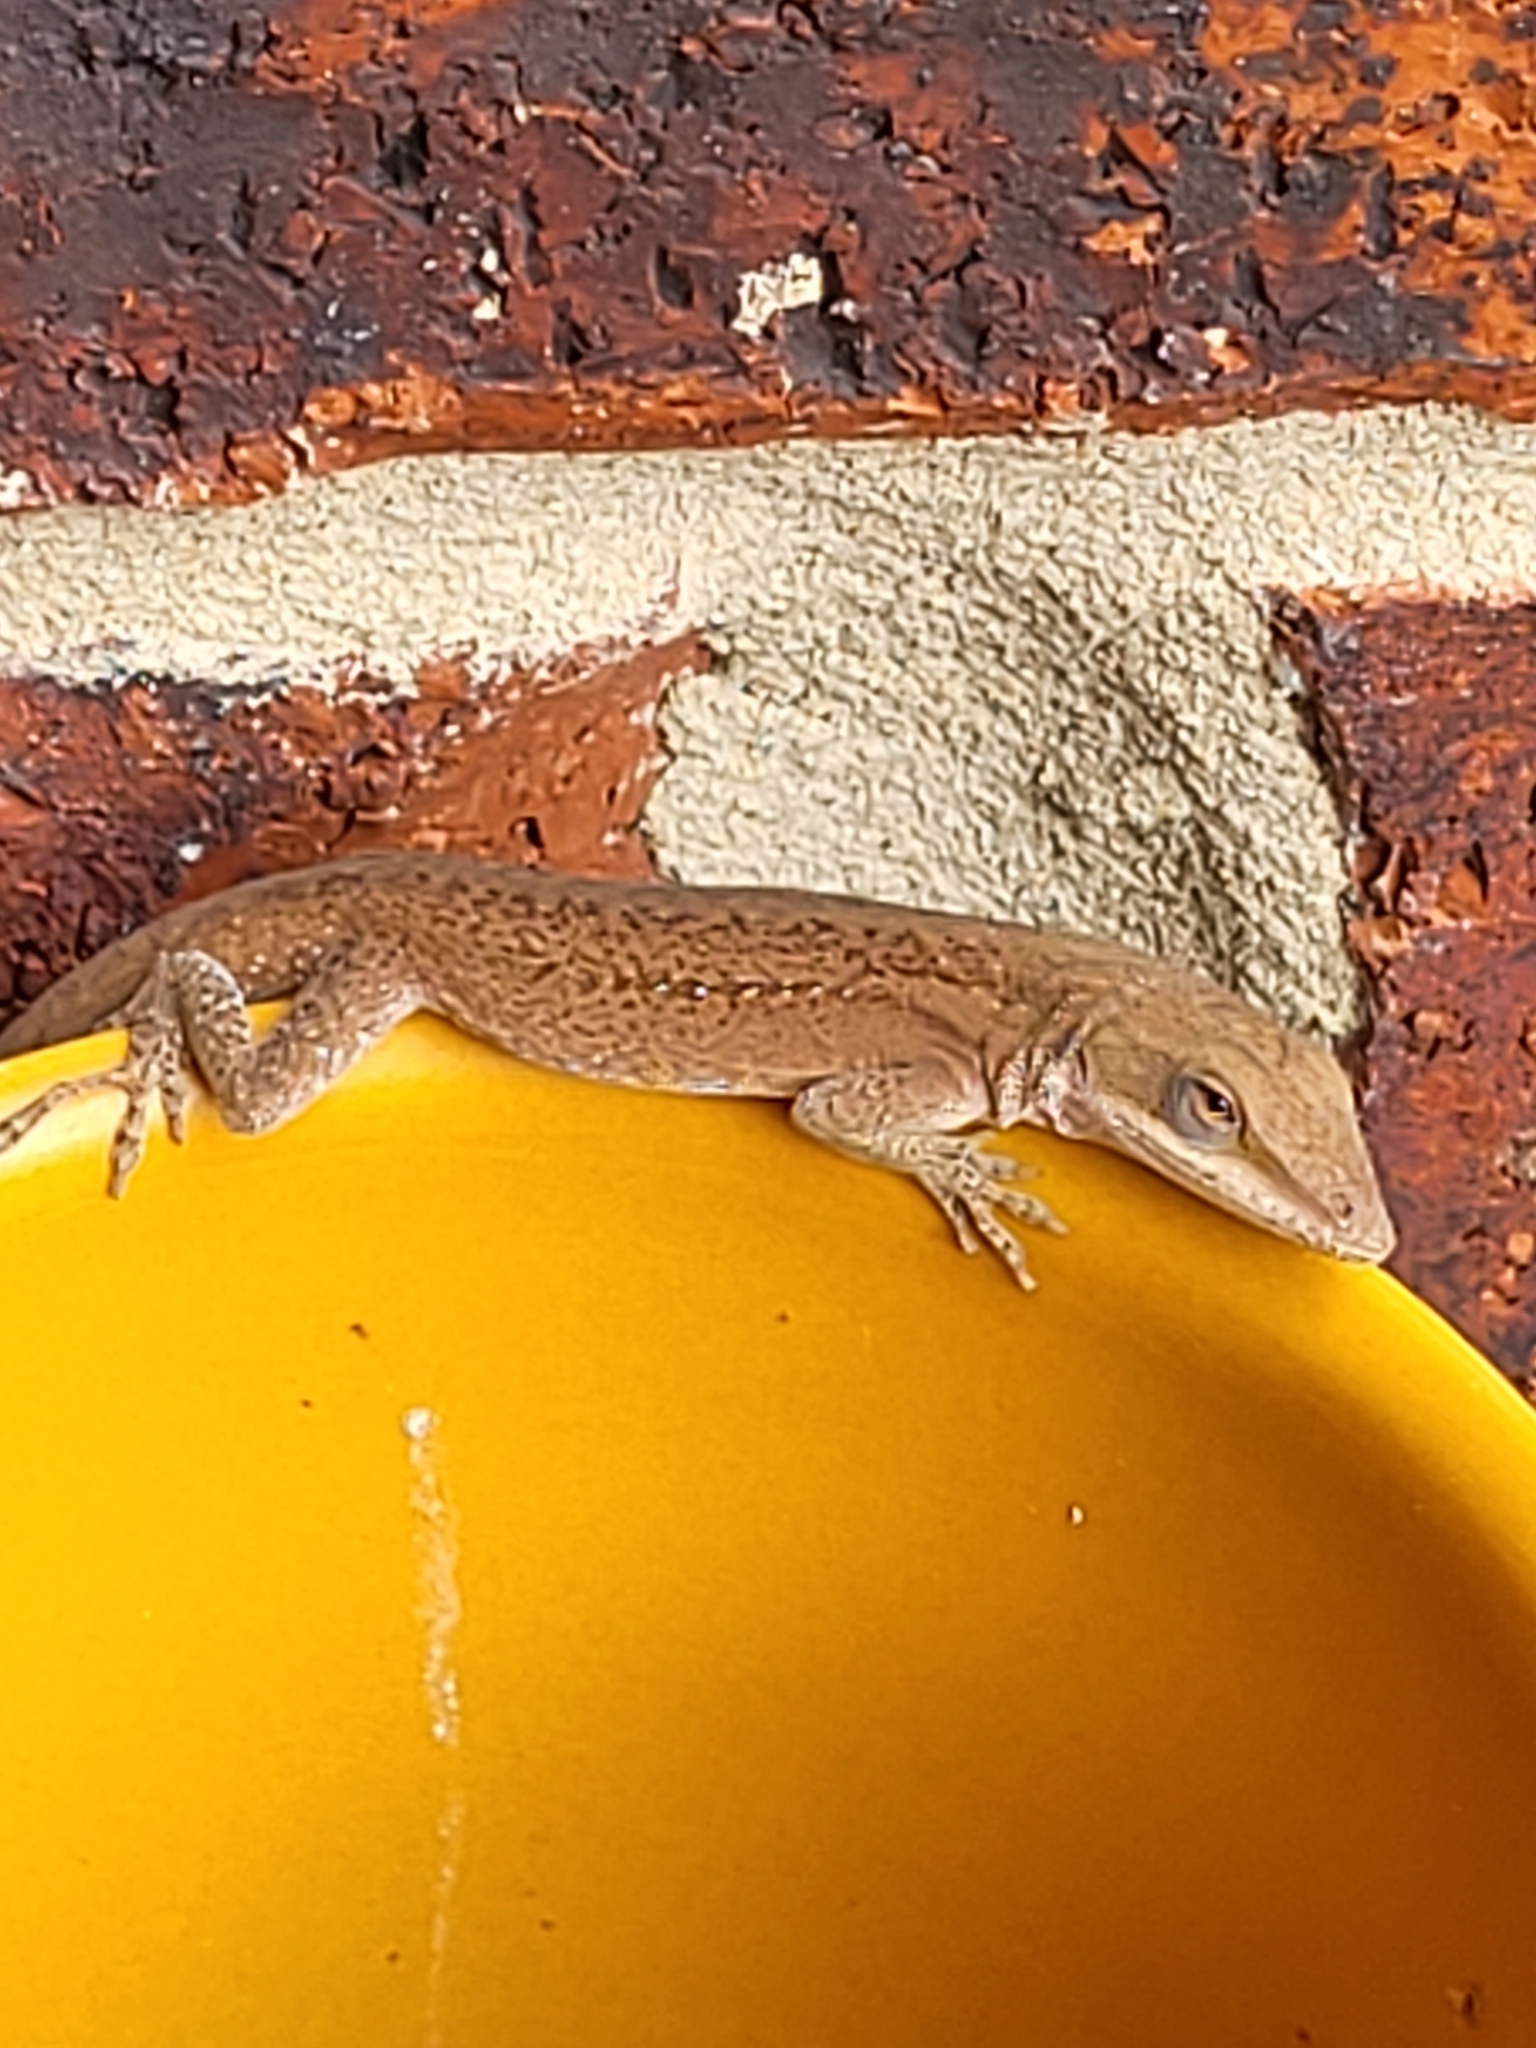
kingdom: Animalia
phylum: Chordata
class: Squamata
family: Dactyloidae
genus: Anolis
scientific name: Anolis carolinensis
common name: Green anole
